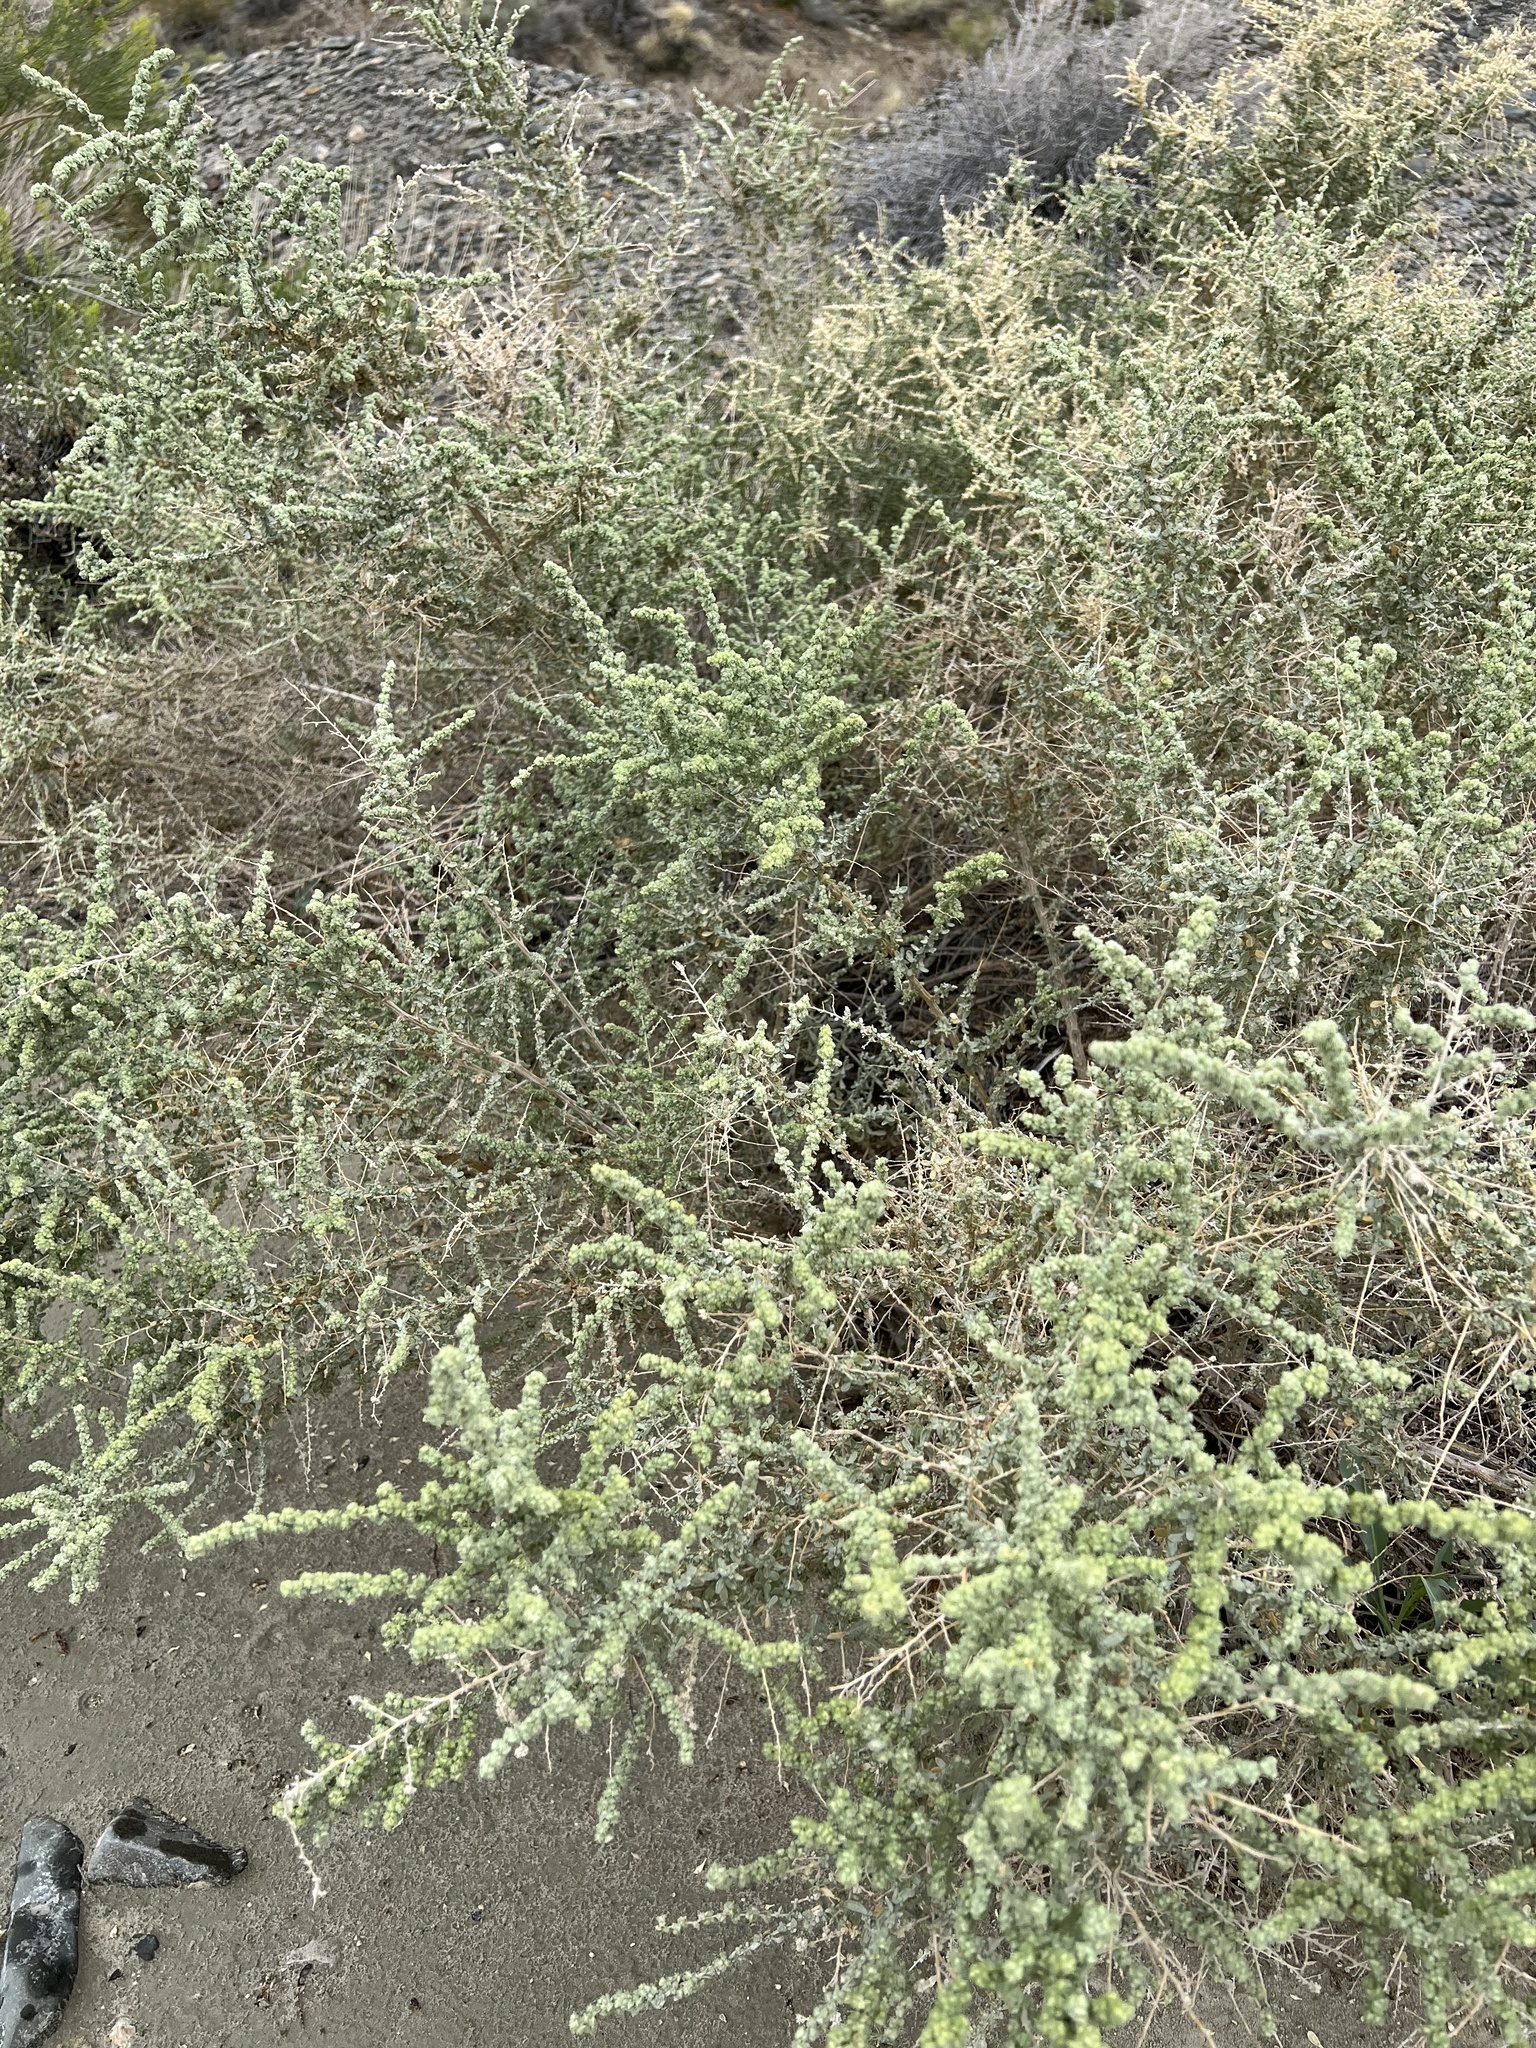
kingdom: Plantae
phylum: Tracheophyta
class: Magnoliopsida
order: Caryophyllales
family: Amaranthaceae
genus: Atriplex
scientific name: Atriplex polycarpa
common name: Desert saltbush
